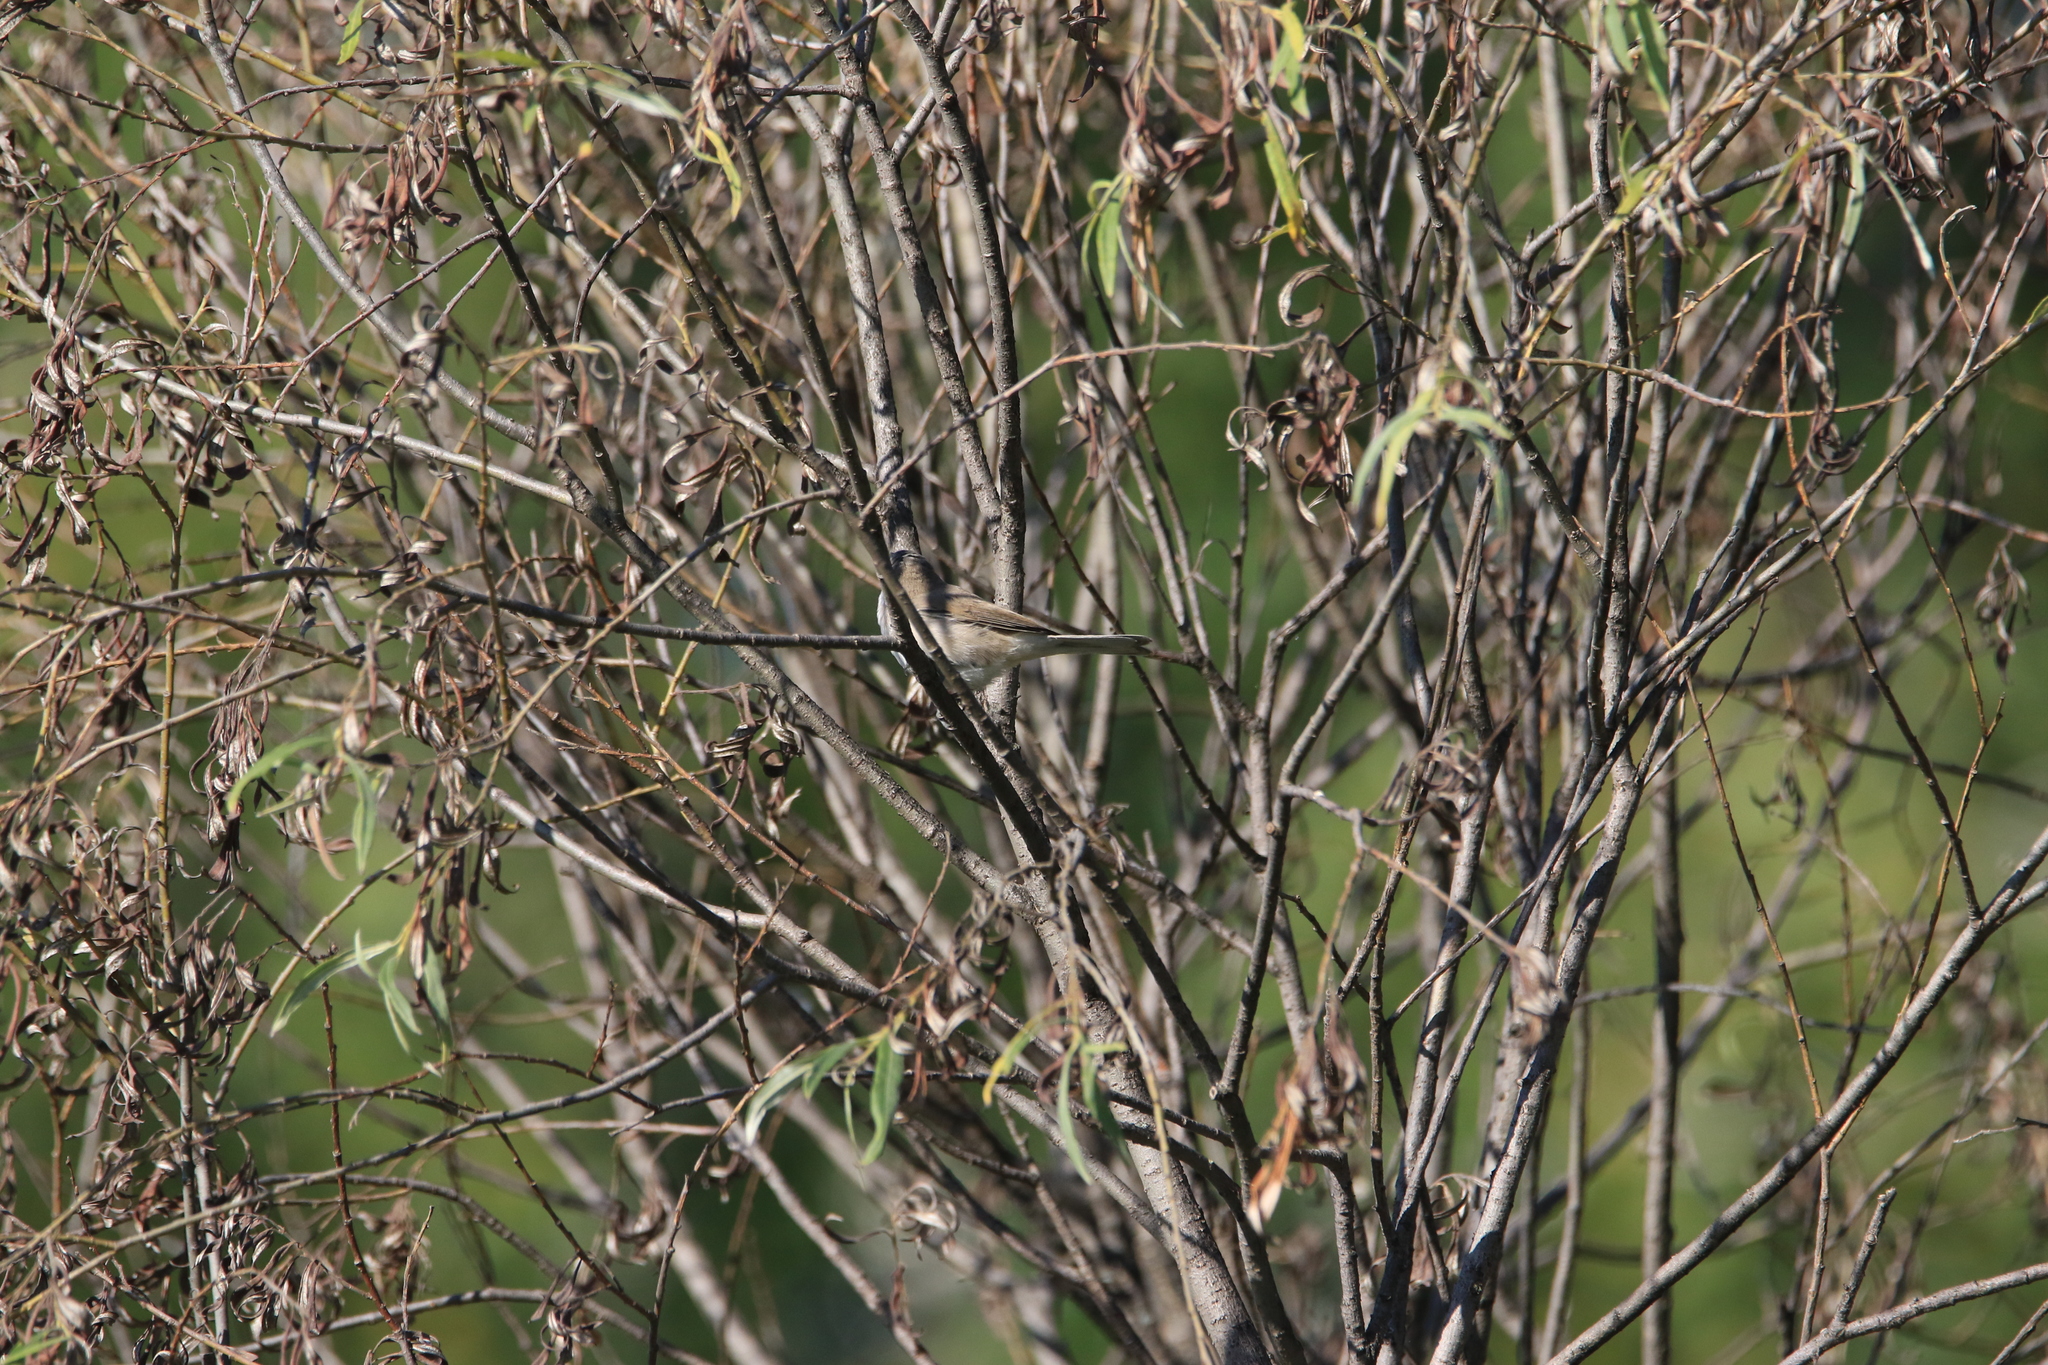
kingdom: Animalia
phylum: Chordata
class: Aves
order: Passeriformes
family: Sylviidae
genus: Sylvia
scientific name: Sylvia curruca
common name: Lesser whitethroat
